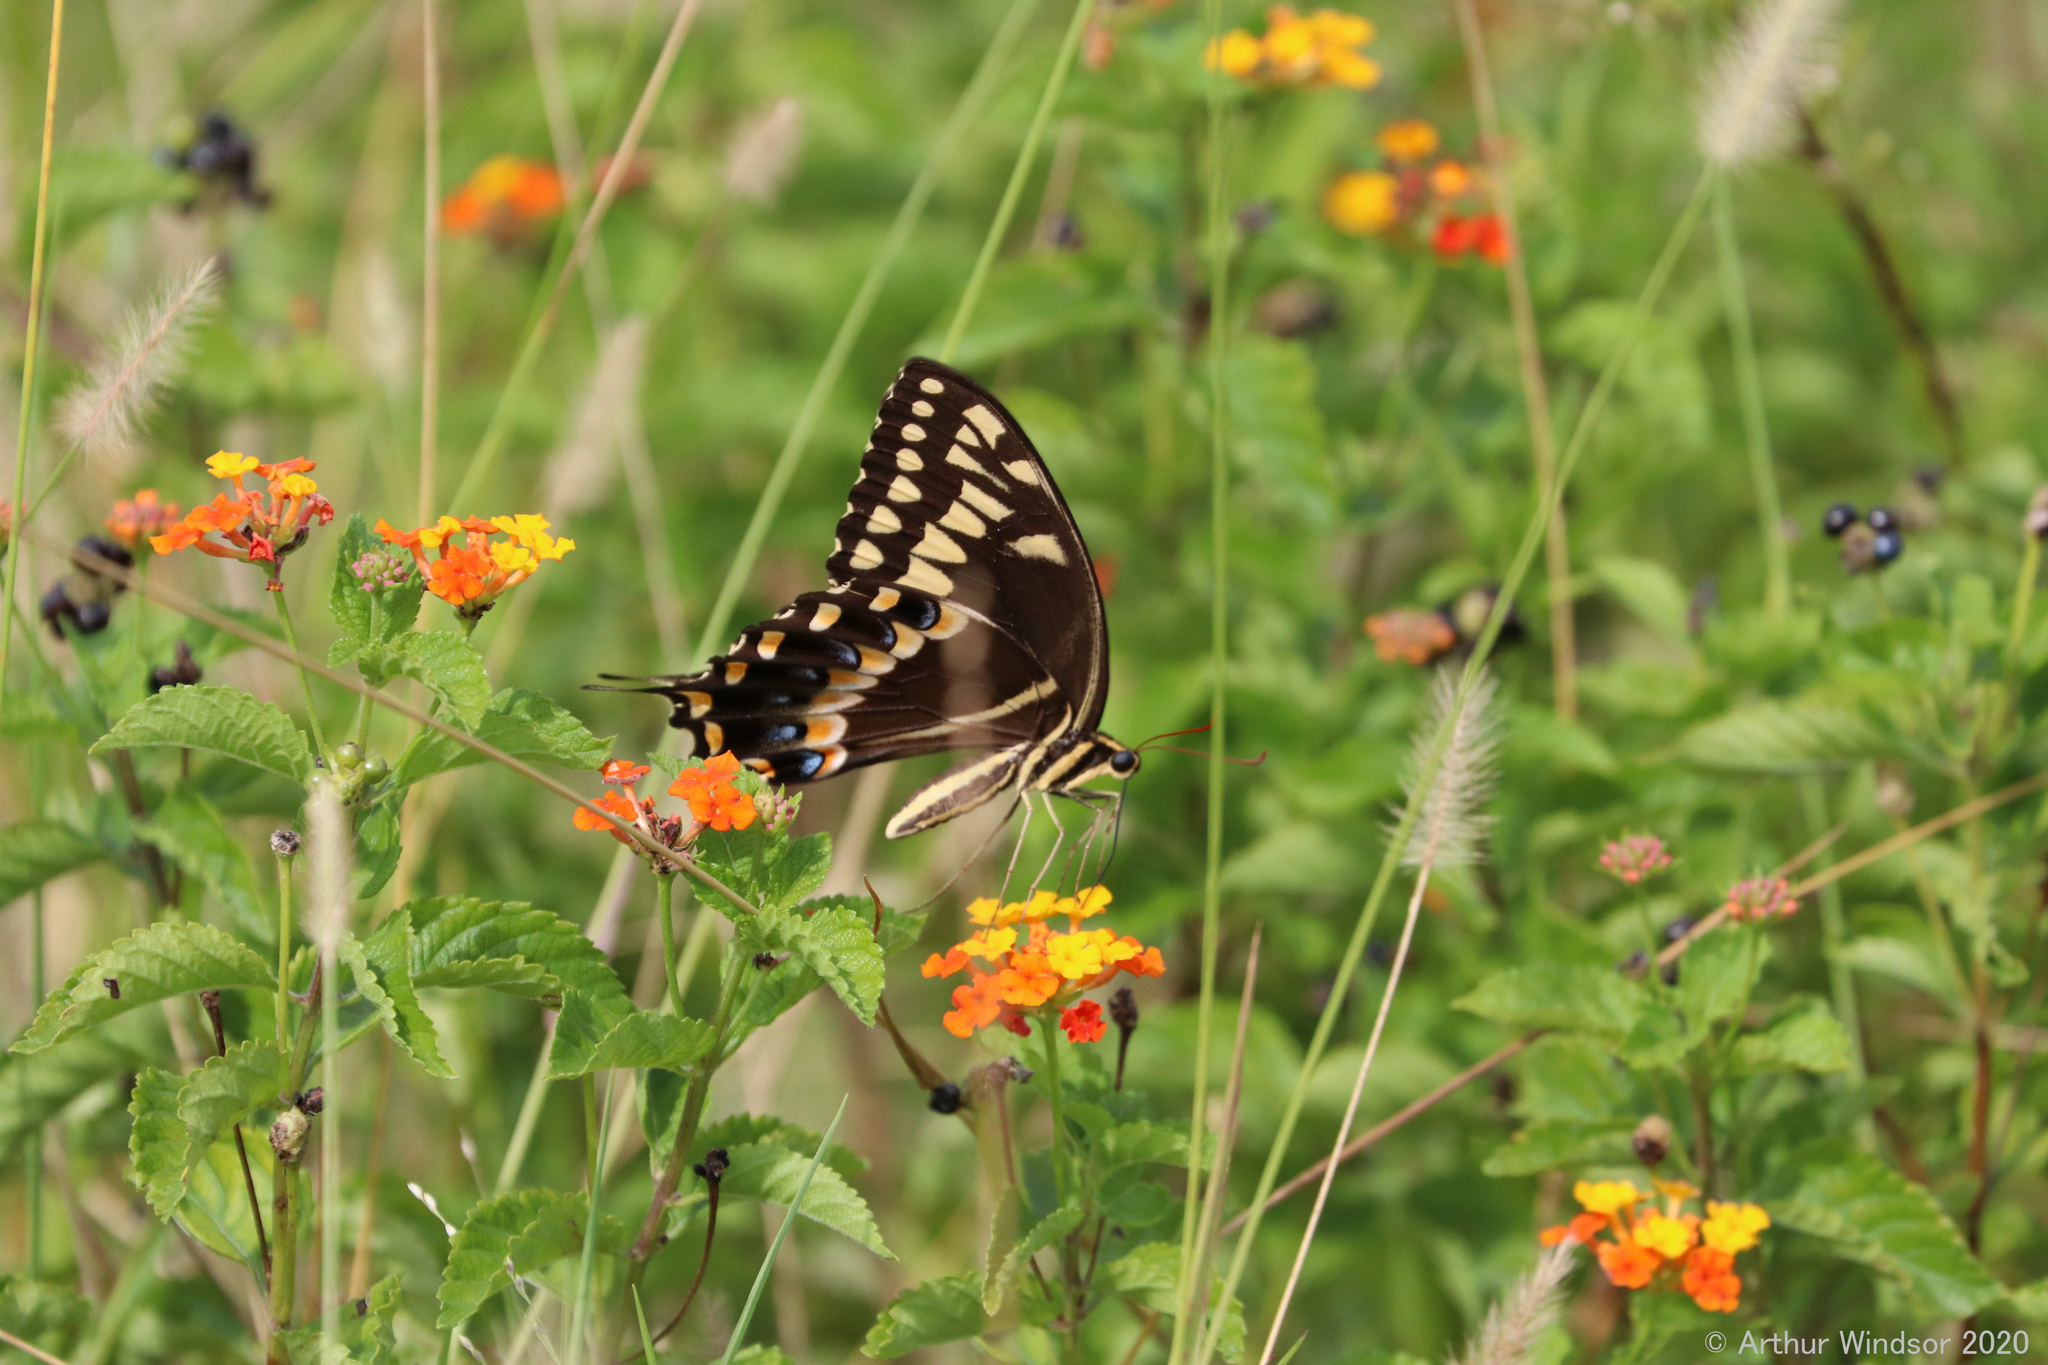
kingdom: Animalia
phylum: Arthropoda
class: Insecta
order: Lepidoptera
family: Papilionidae
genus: Papilio
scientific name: Papilio palamedes
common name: Palamedes swallowtail
